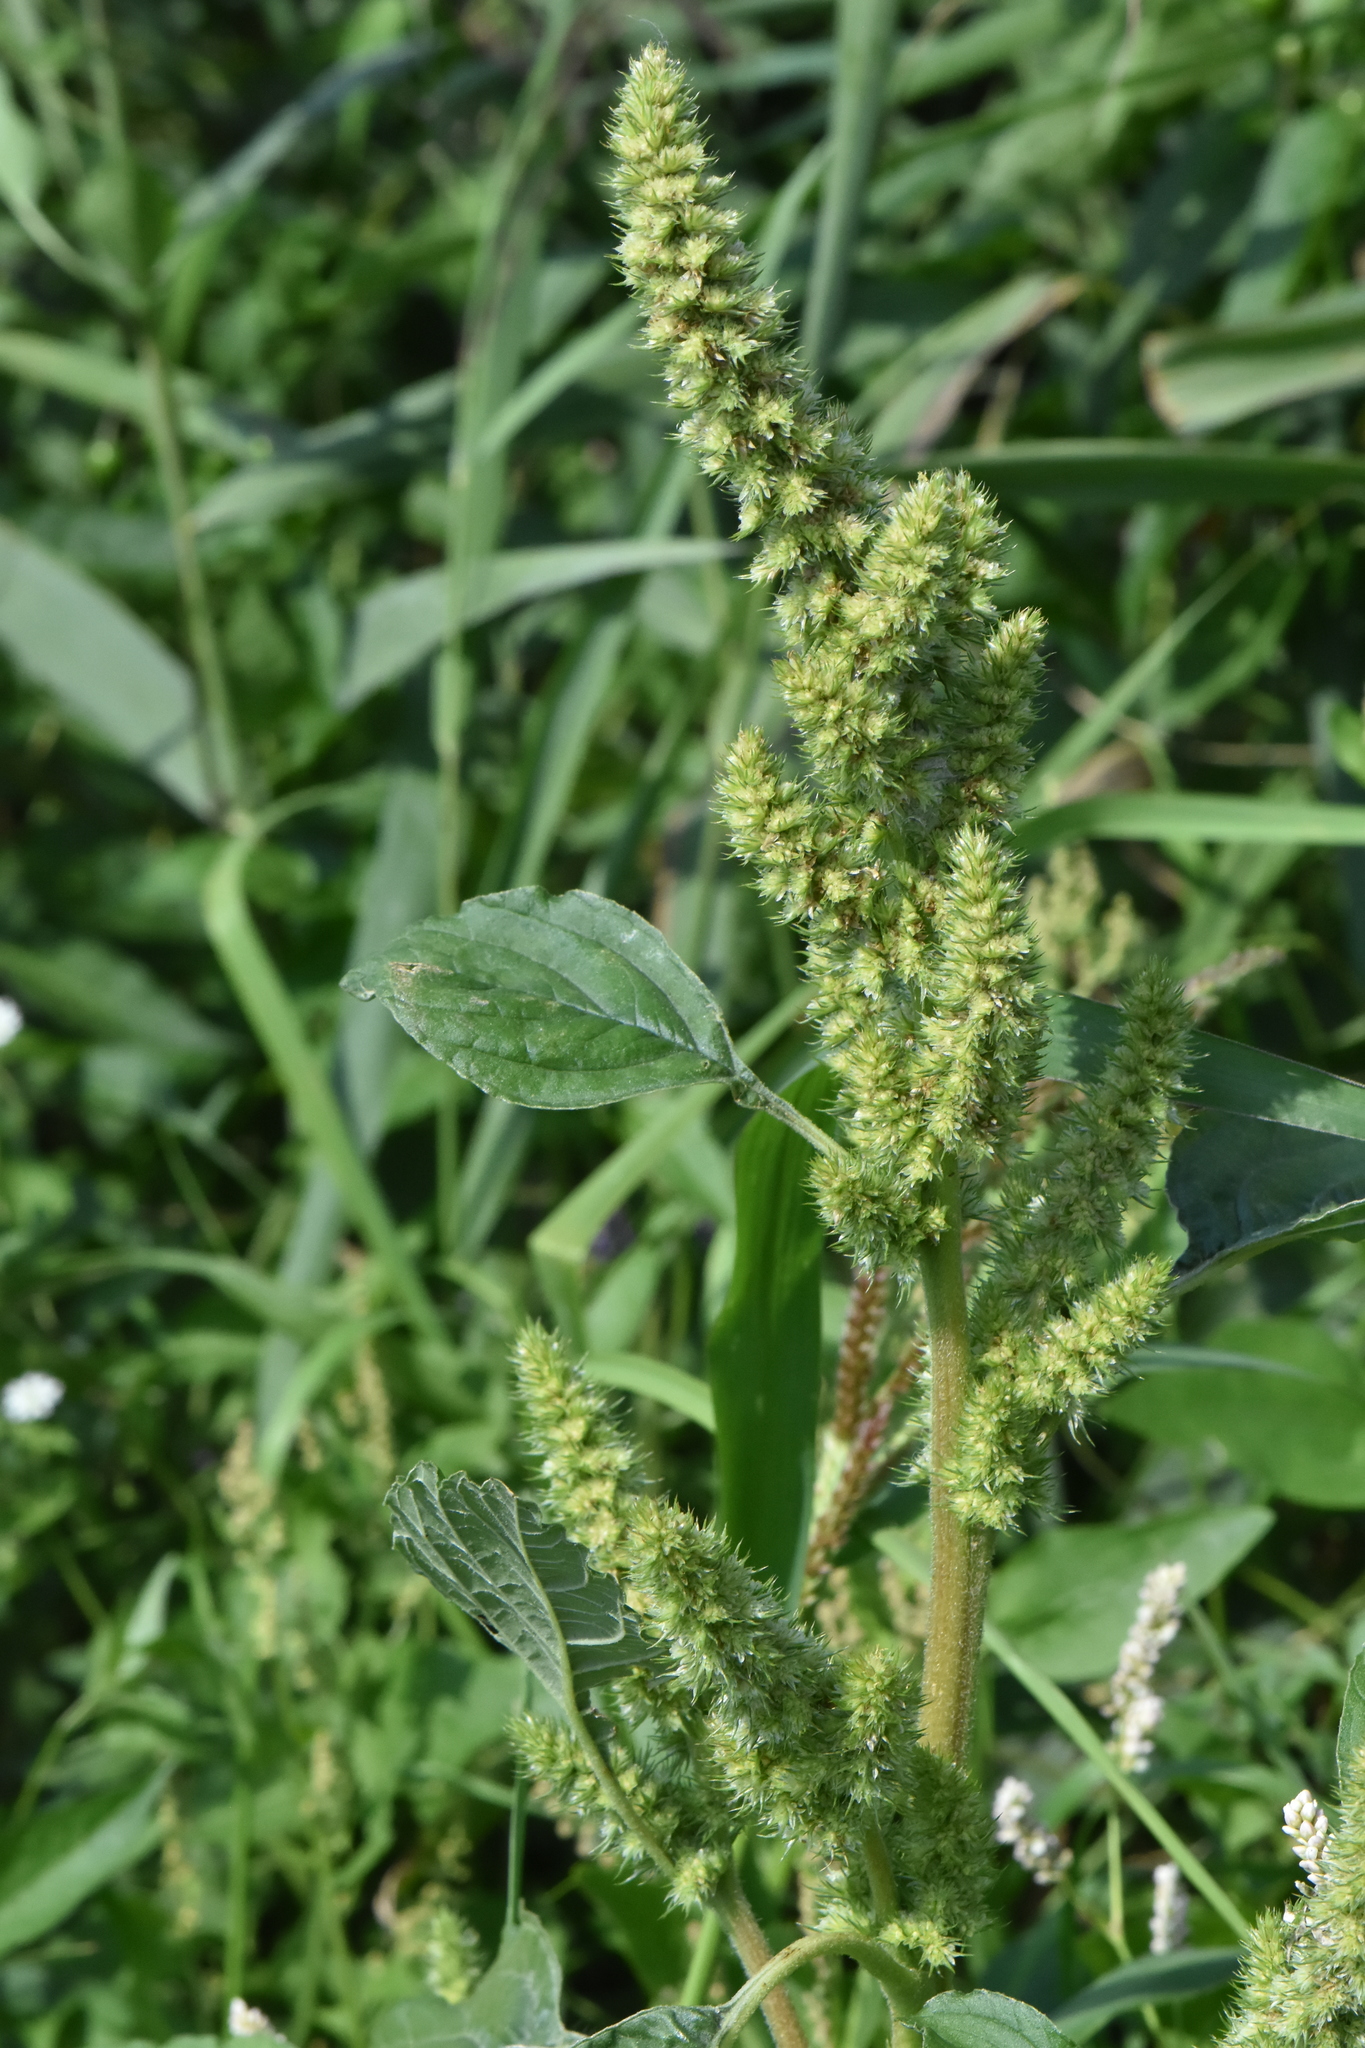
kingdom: Plantae
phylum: Tracheophyta
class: Magnoliopsida
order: Caryophyllales
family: Amaranthaceae
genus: Amaranthus
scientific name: Amaranthus retroflexus
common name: Redroot amaranth
